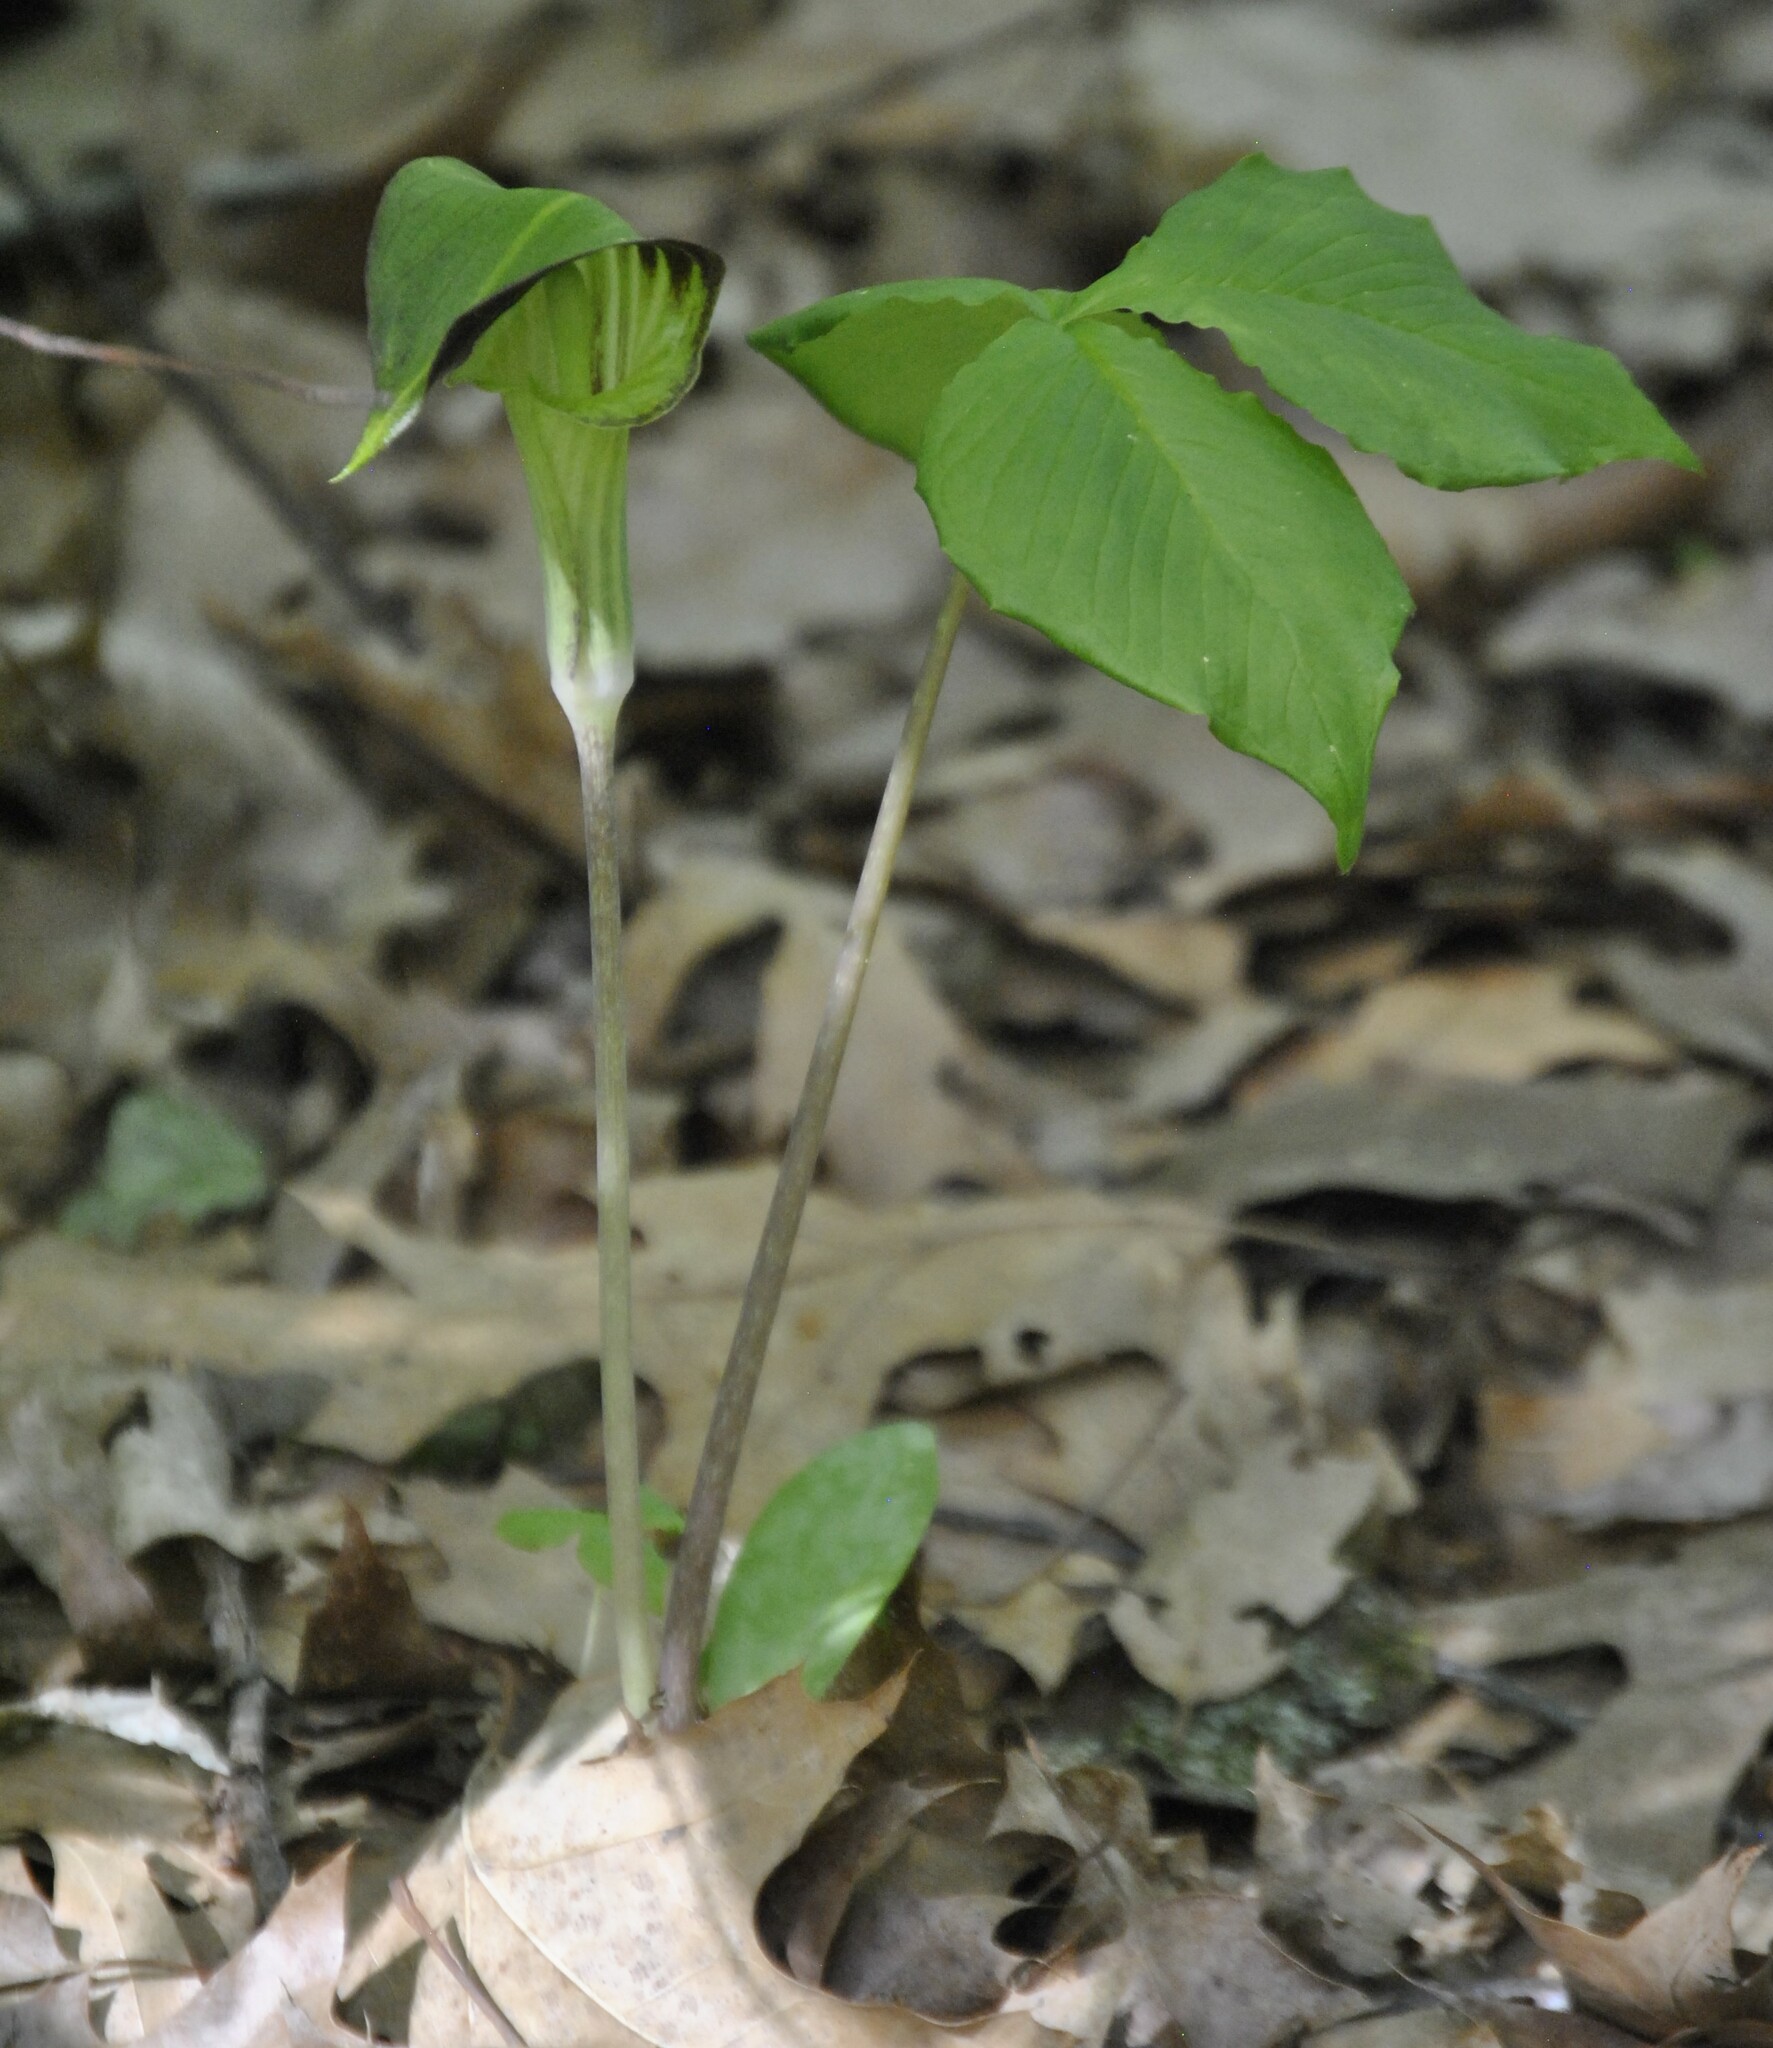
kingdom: Plantae
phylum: Tracheophyta
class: Liliopsida
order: Alismatales
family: Araceae
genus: Arisaema
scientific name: Arisaema triphyllum
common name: Jack-in-the-pulpit
